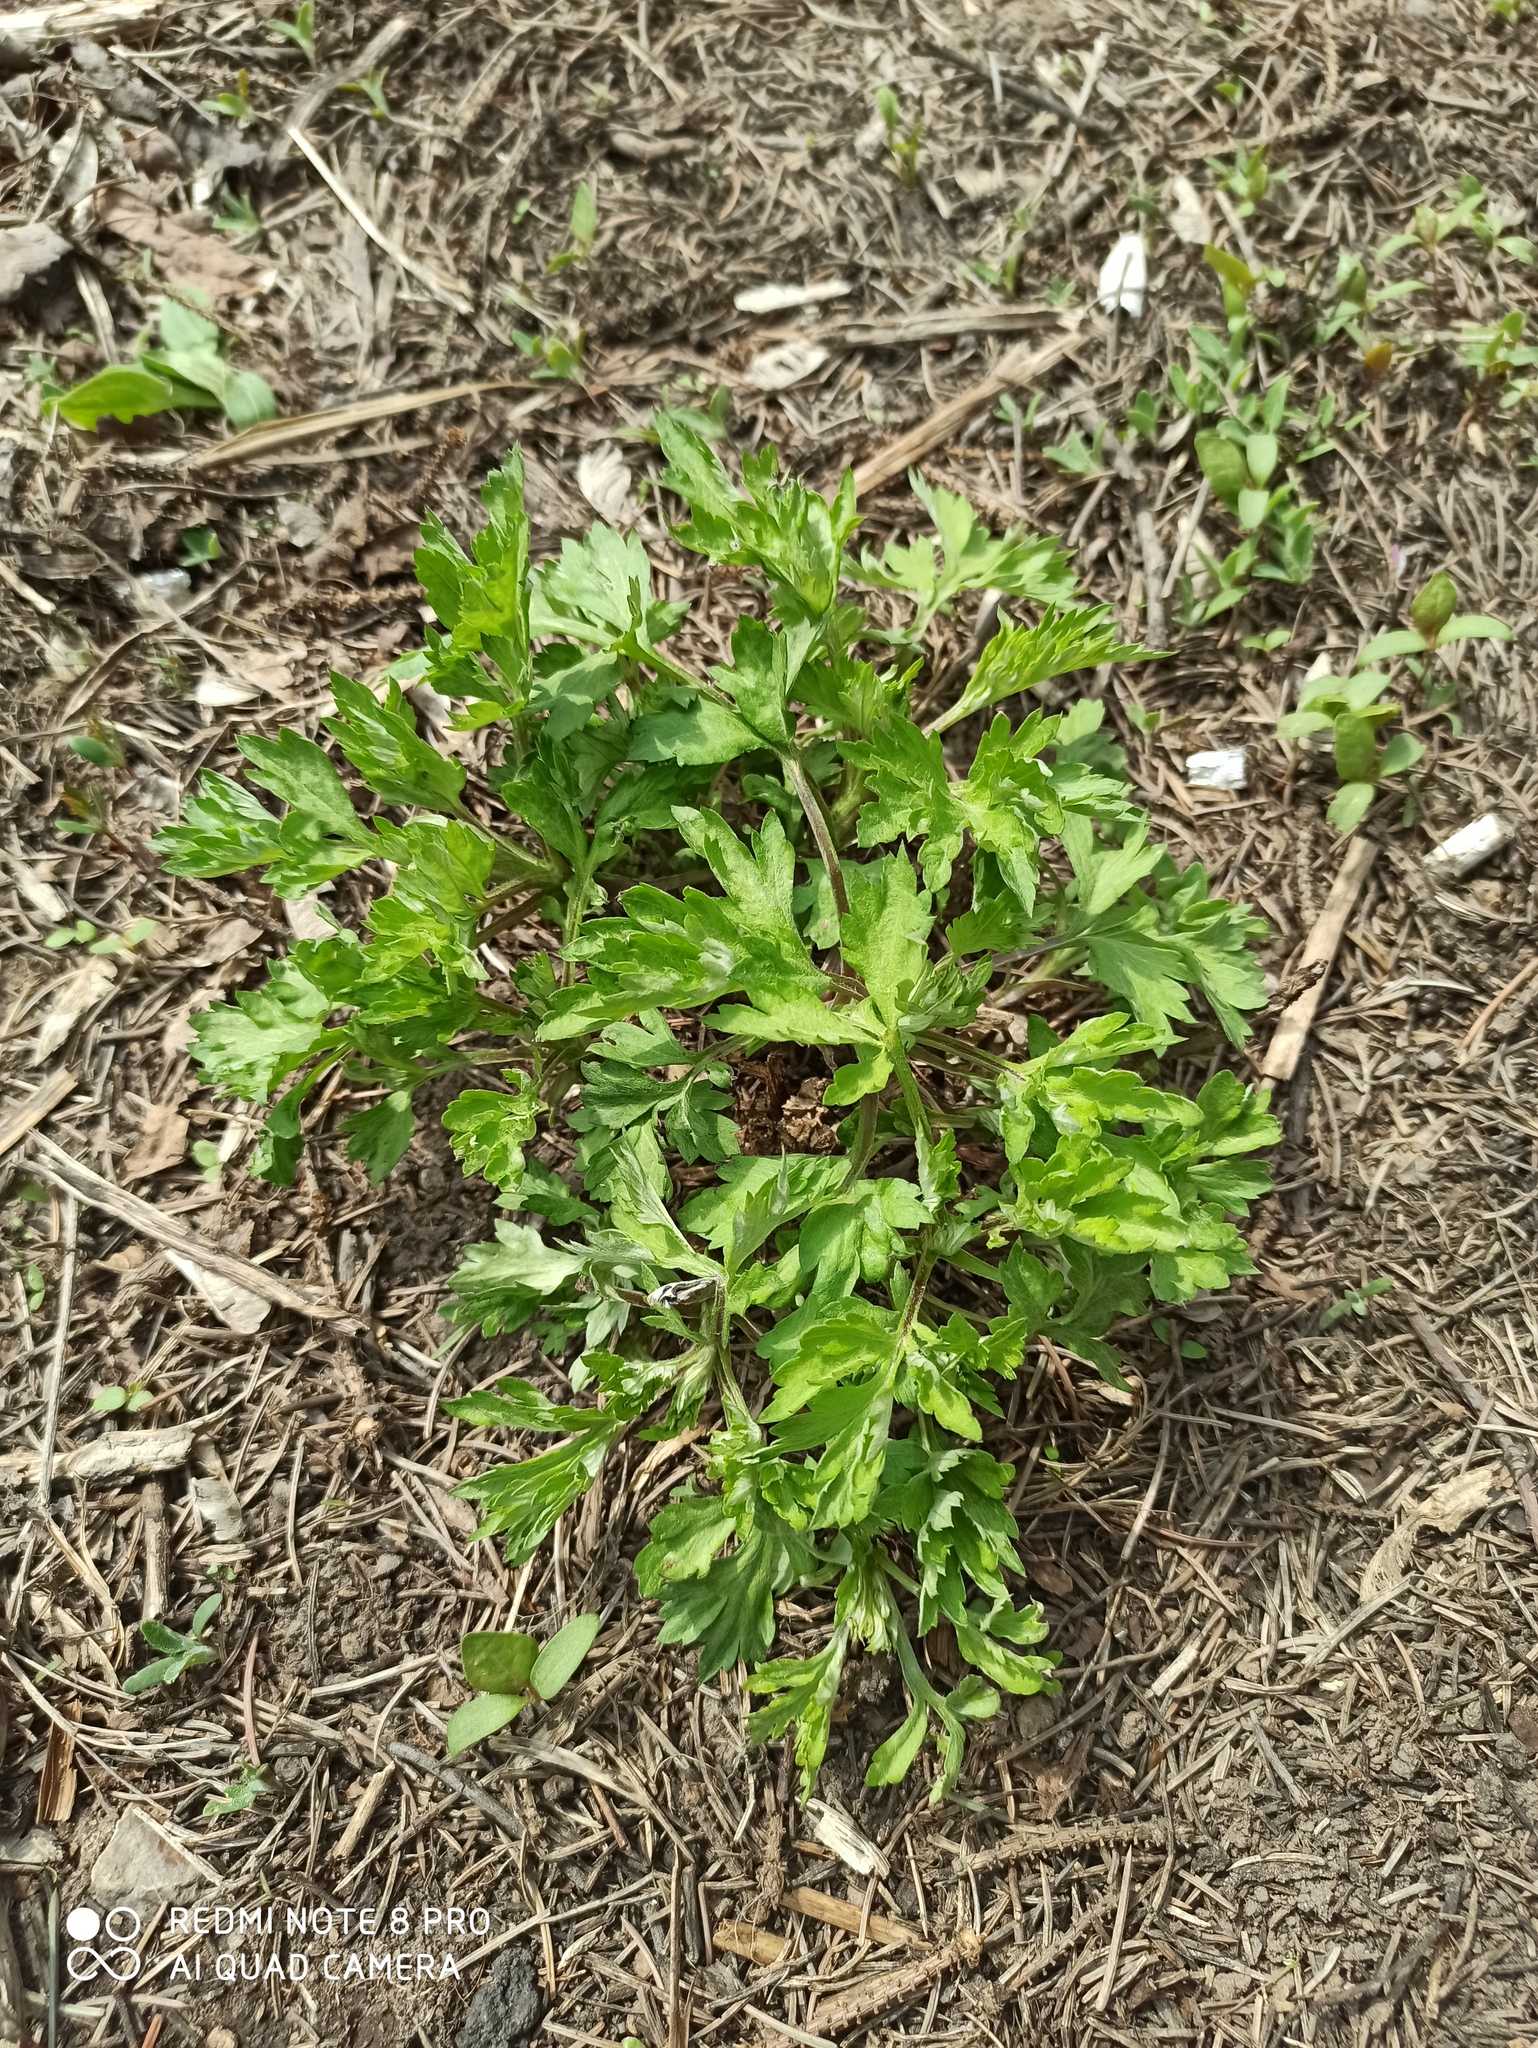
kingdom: Plantae
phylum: Tracheophyta
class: Magnoliopsida
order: Asterales
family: Asteraceae
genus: Artemisia
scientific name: Artemisia vulgaris
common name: Mugwort
